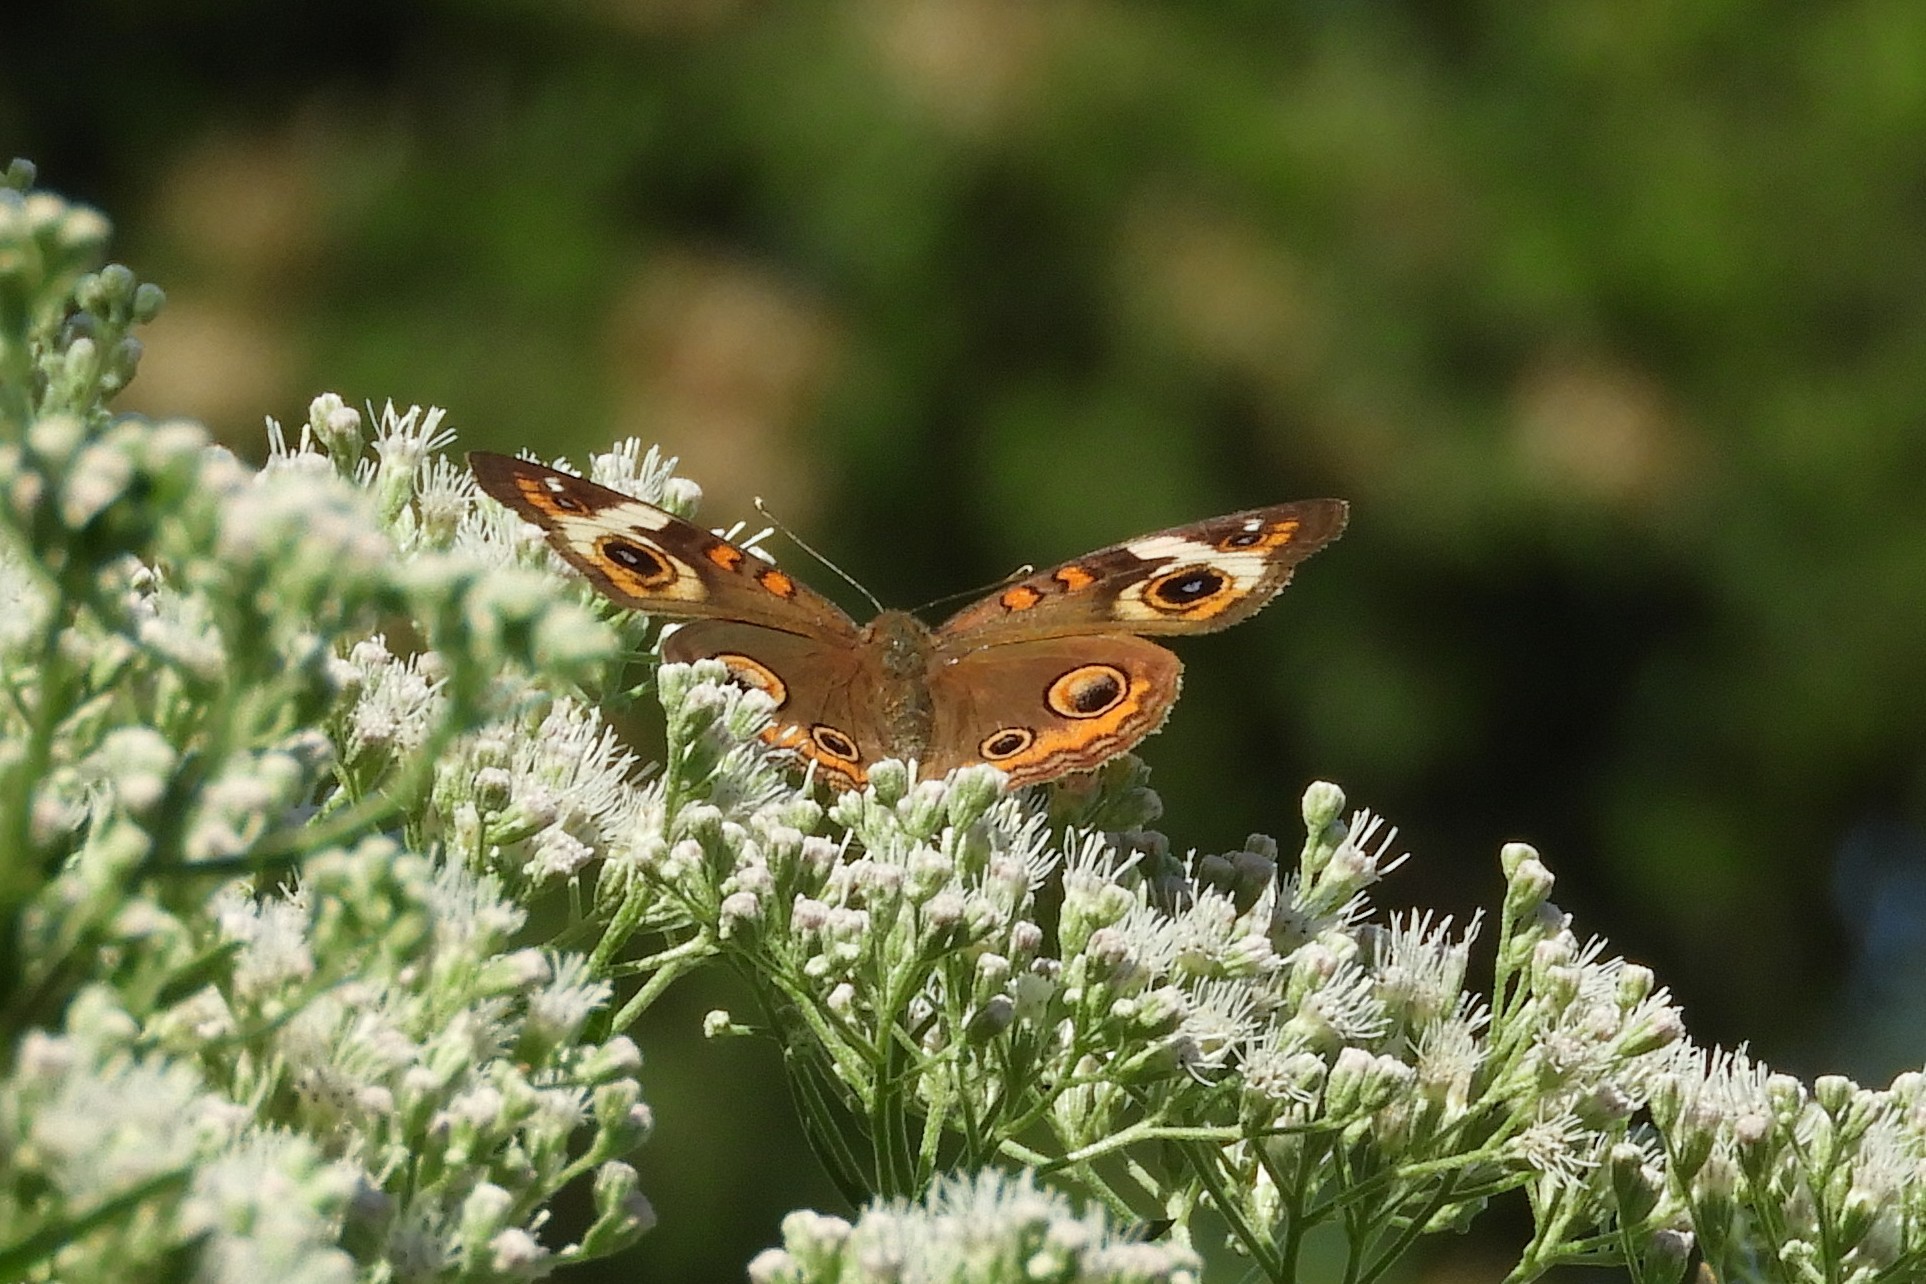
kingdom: Animalia
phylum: Arthropoda
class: Insecta
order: Lepidoptera
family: Nymphalidae
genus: Junonia
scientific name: Junonia coenia
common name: Common buckeye
